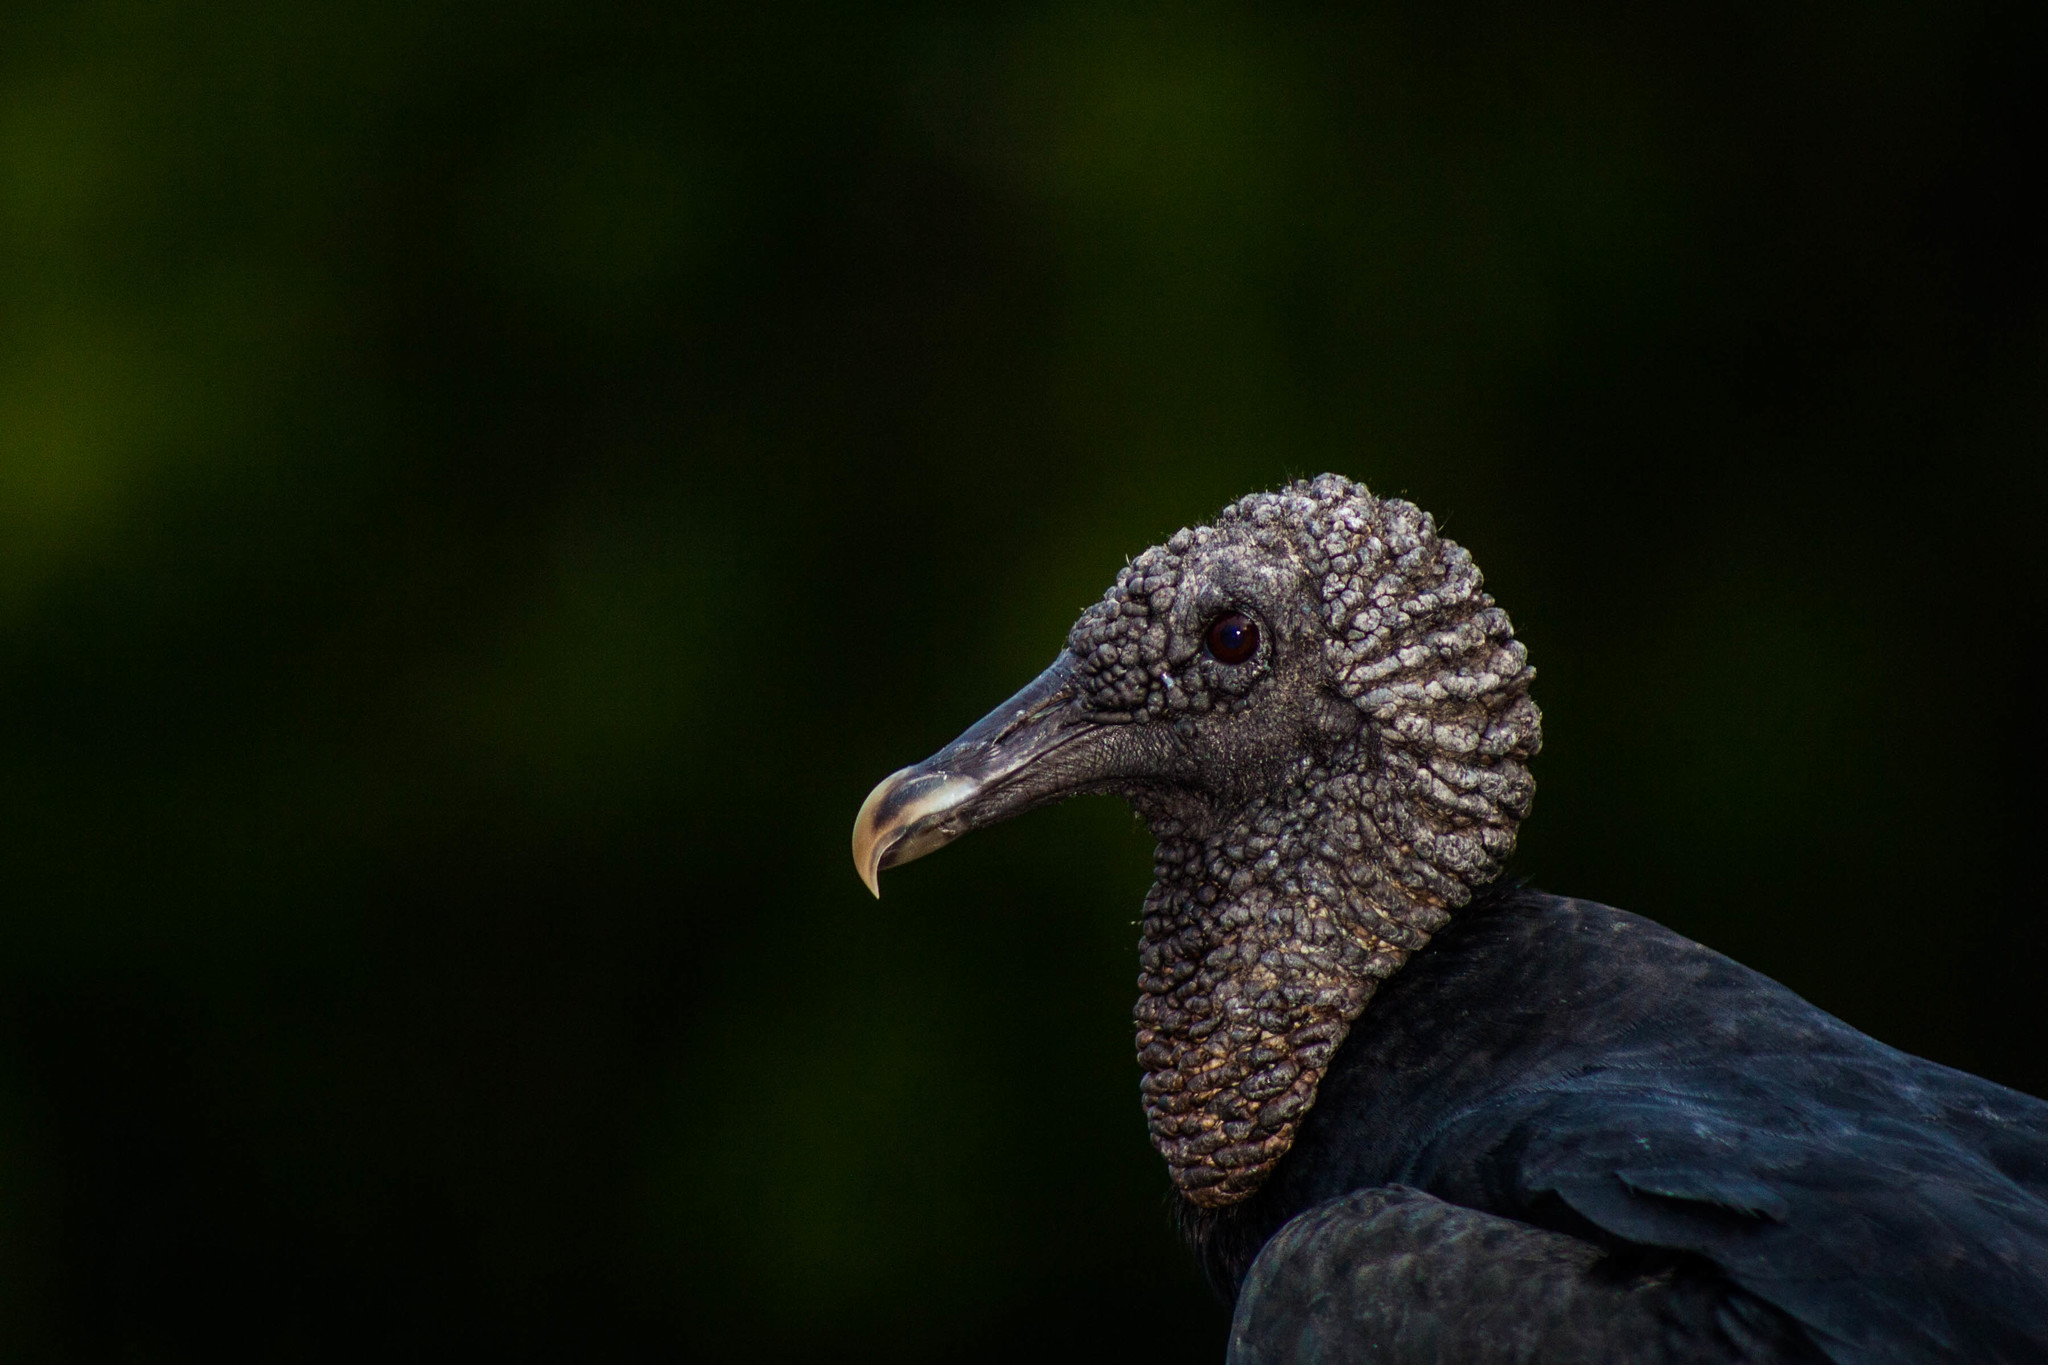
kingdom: Animalia
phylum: Chordata
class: Aves
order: Accipitriformes
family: Cathartidae
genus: Coragyps
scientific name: Coragyps atratus
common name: Black vulture
